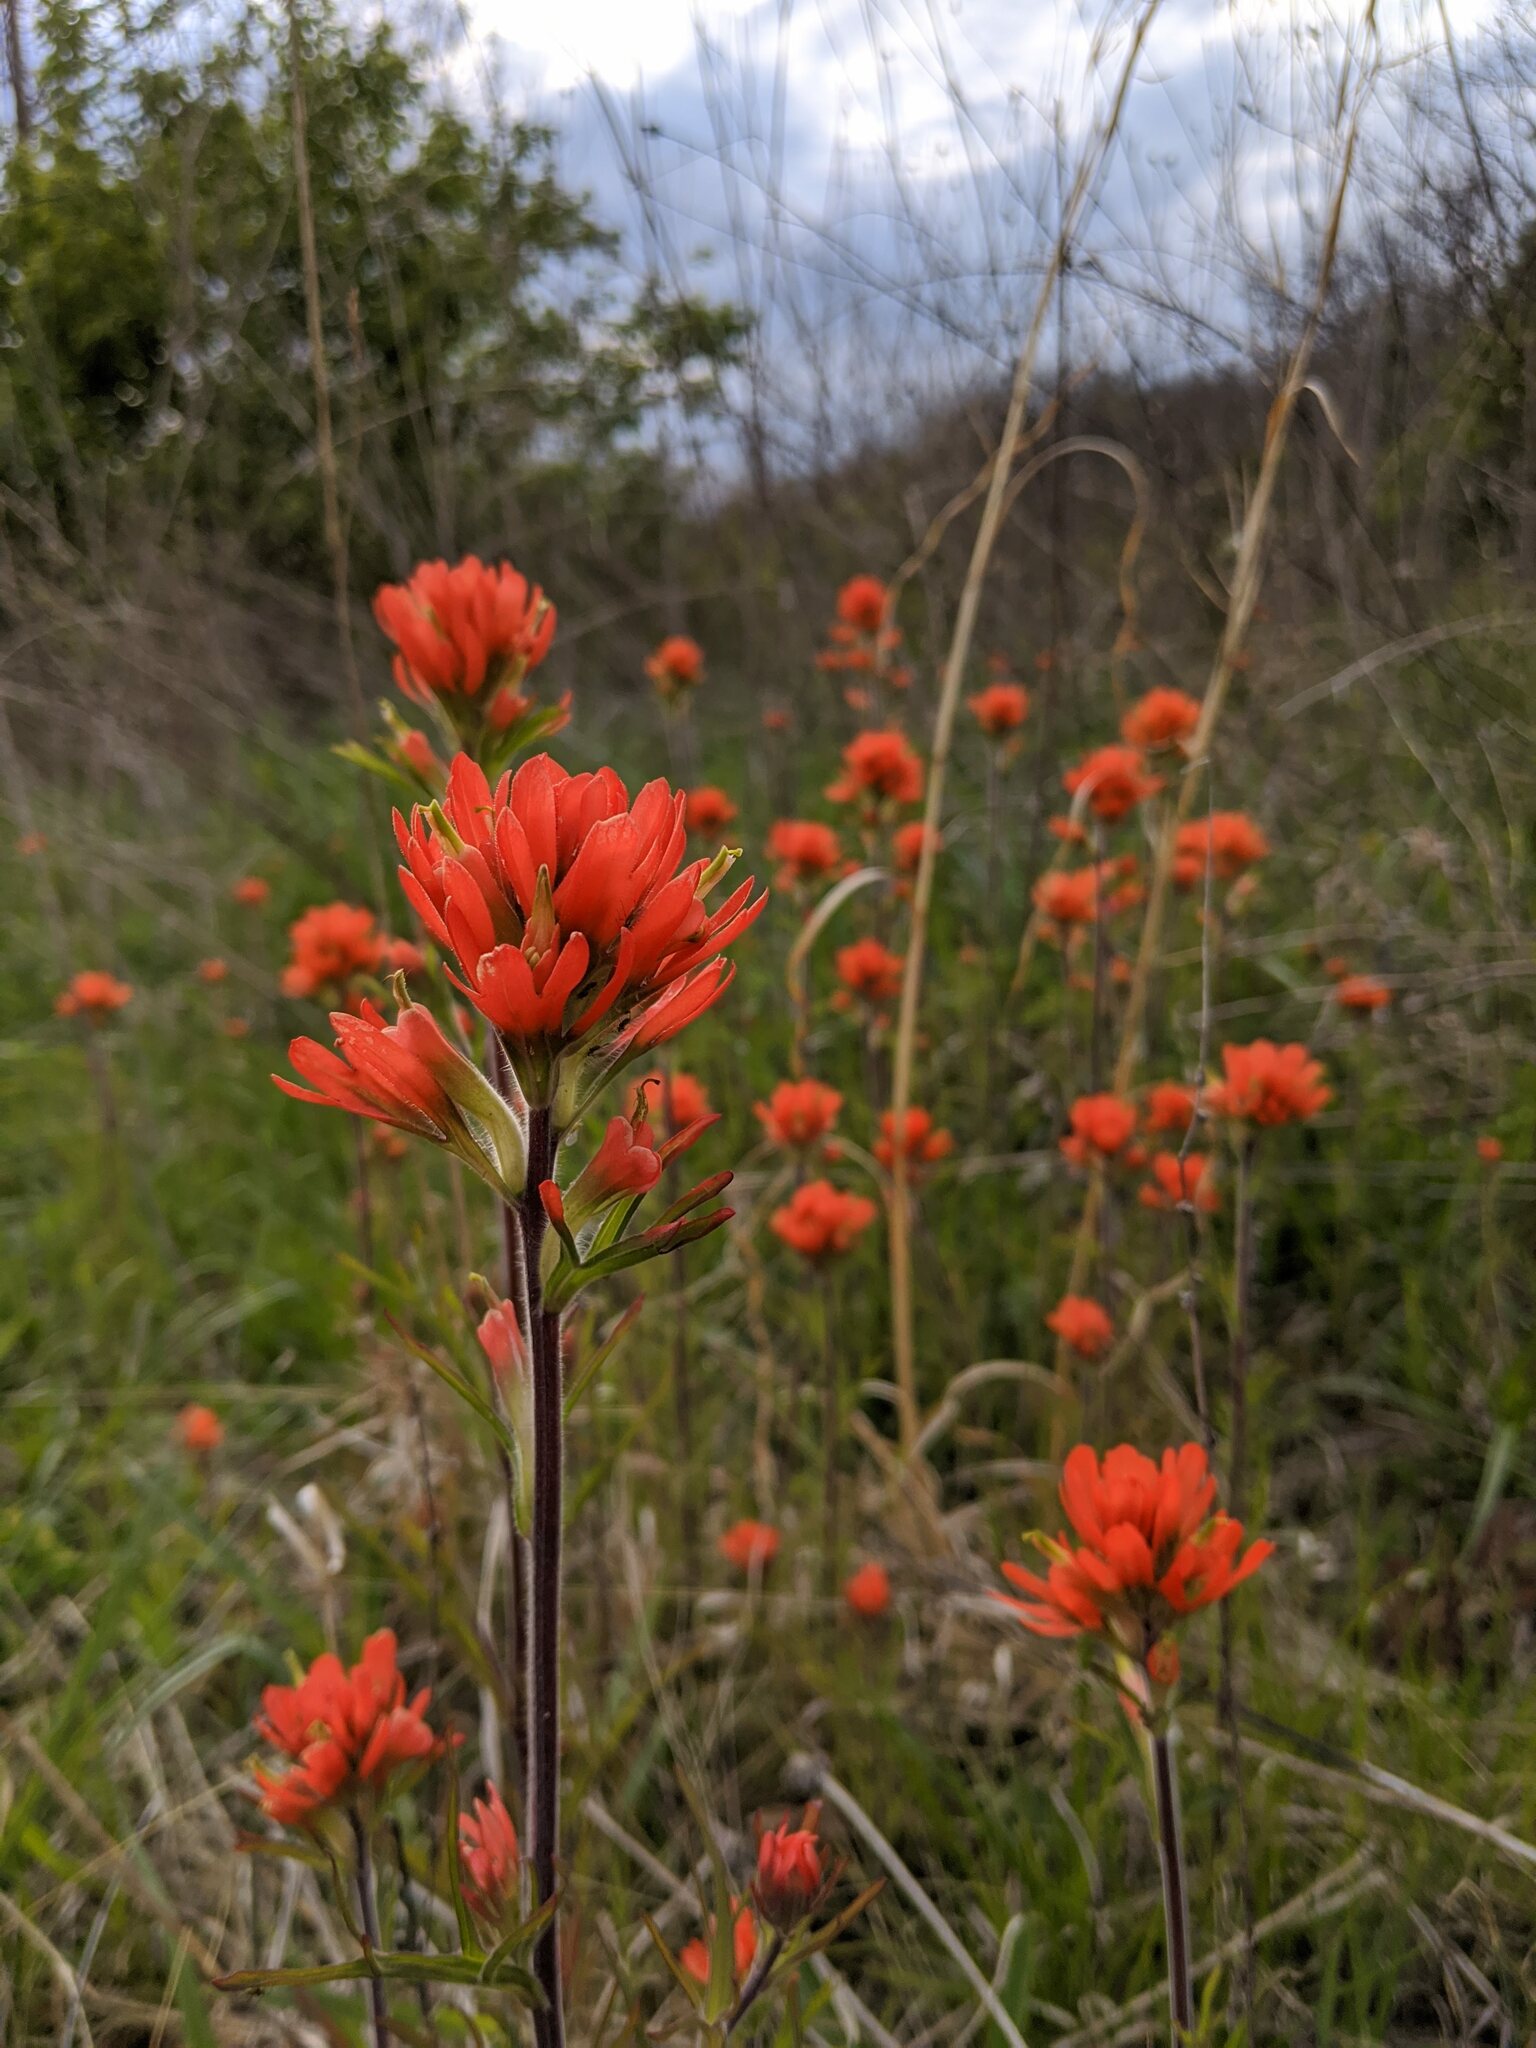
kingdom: Plantae
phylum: Tracheophyta
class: Magnoliopsida
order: Lamiales
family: Orobanchaceae
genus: Castilleja
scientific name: Castilleja coccinea
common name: Scarlet paintbrush
